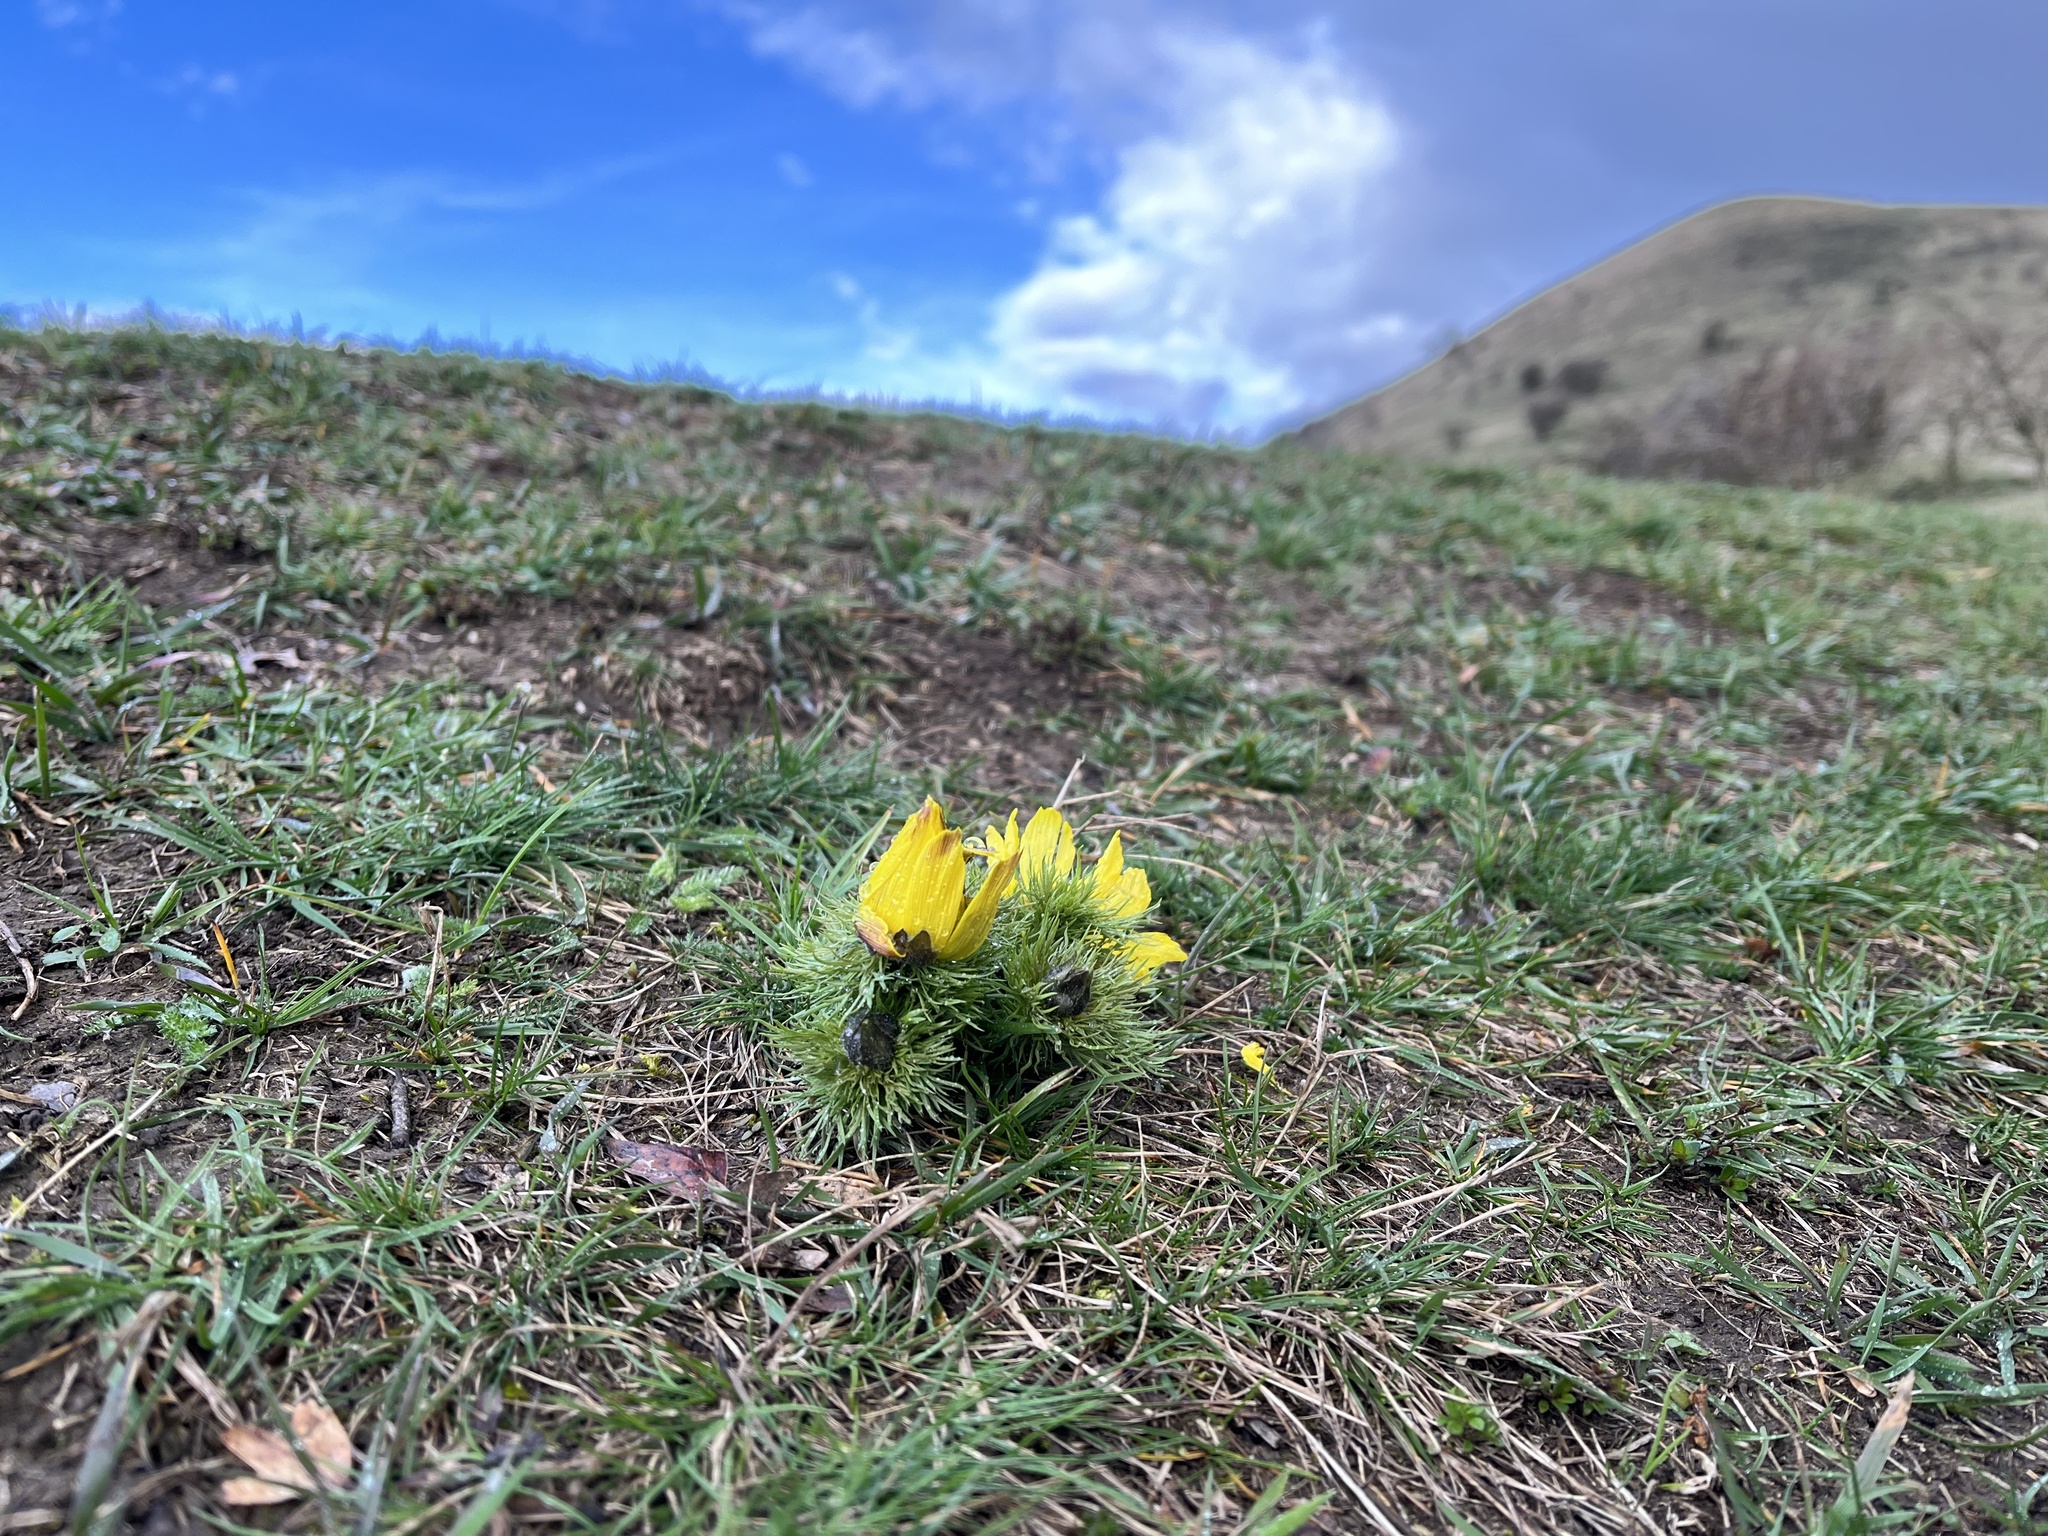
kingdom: Plantae
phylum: Tracheophyta
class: Magnoliopsida
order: Ranunculales
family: Ranunculaceae
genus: Adonis
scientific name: Adonis vernalis
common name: Yellow pheasants-eye
